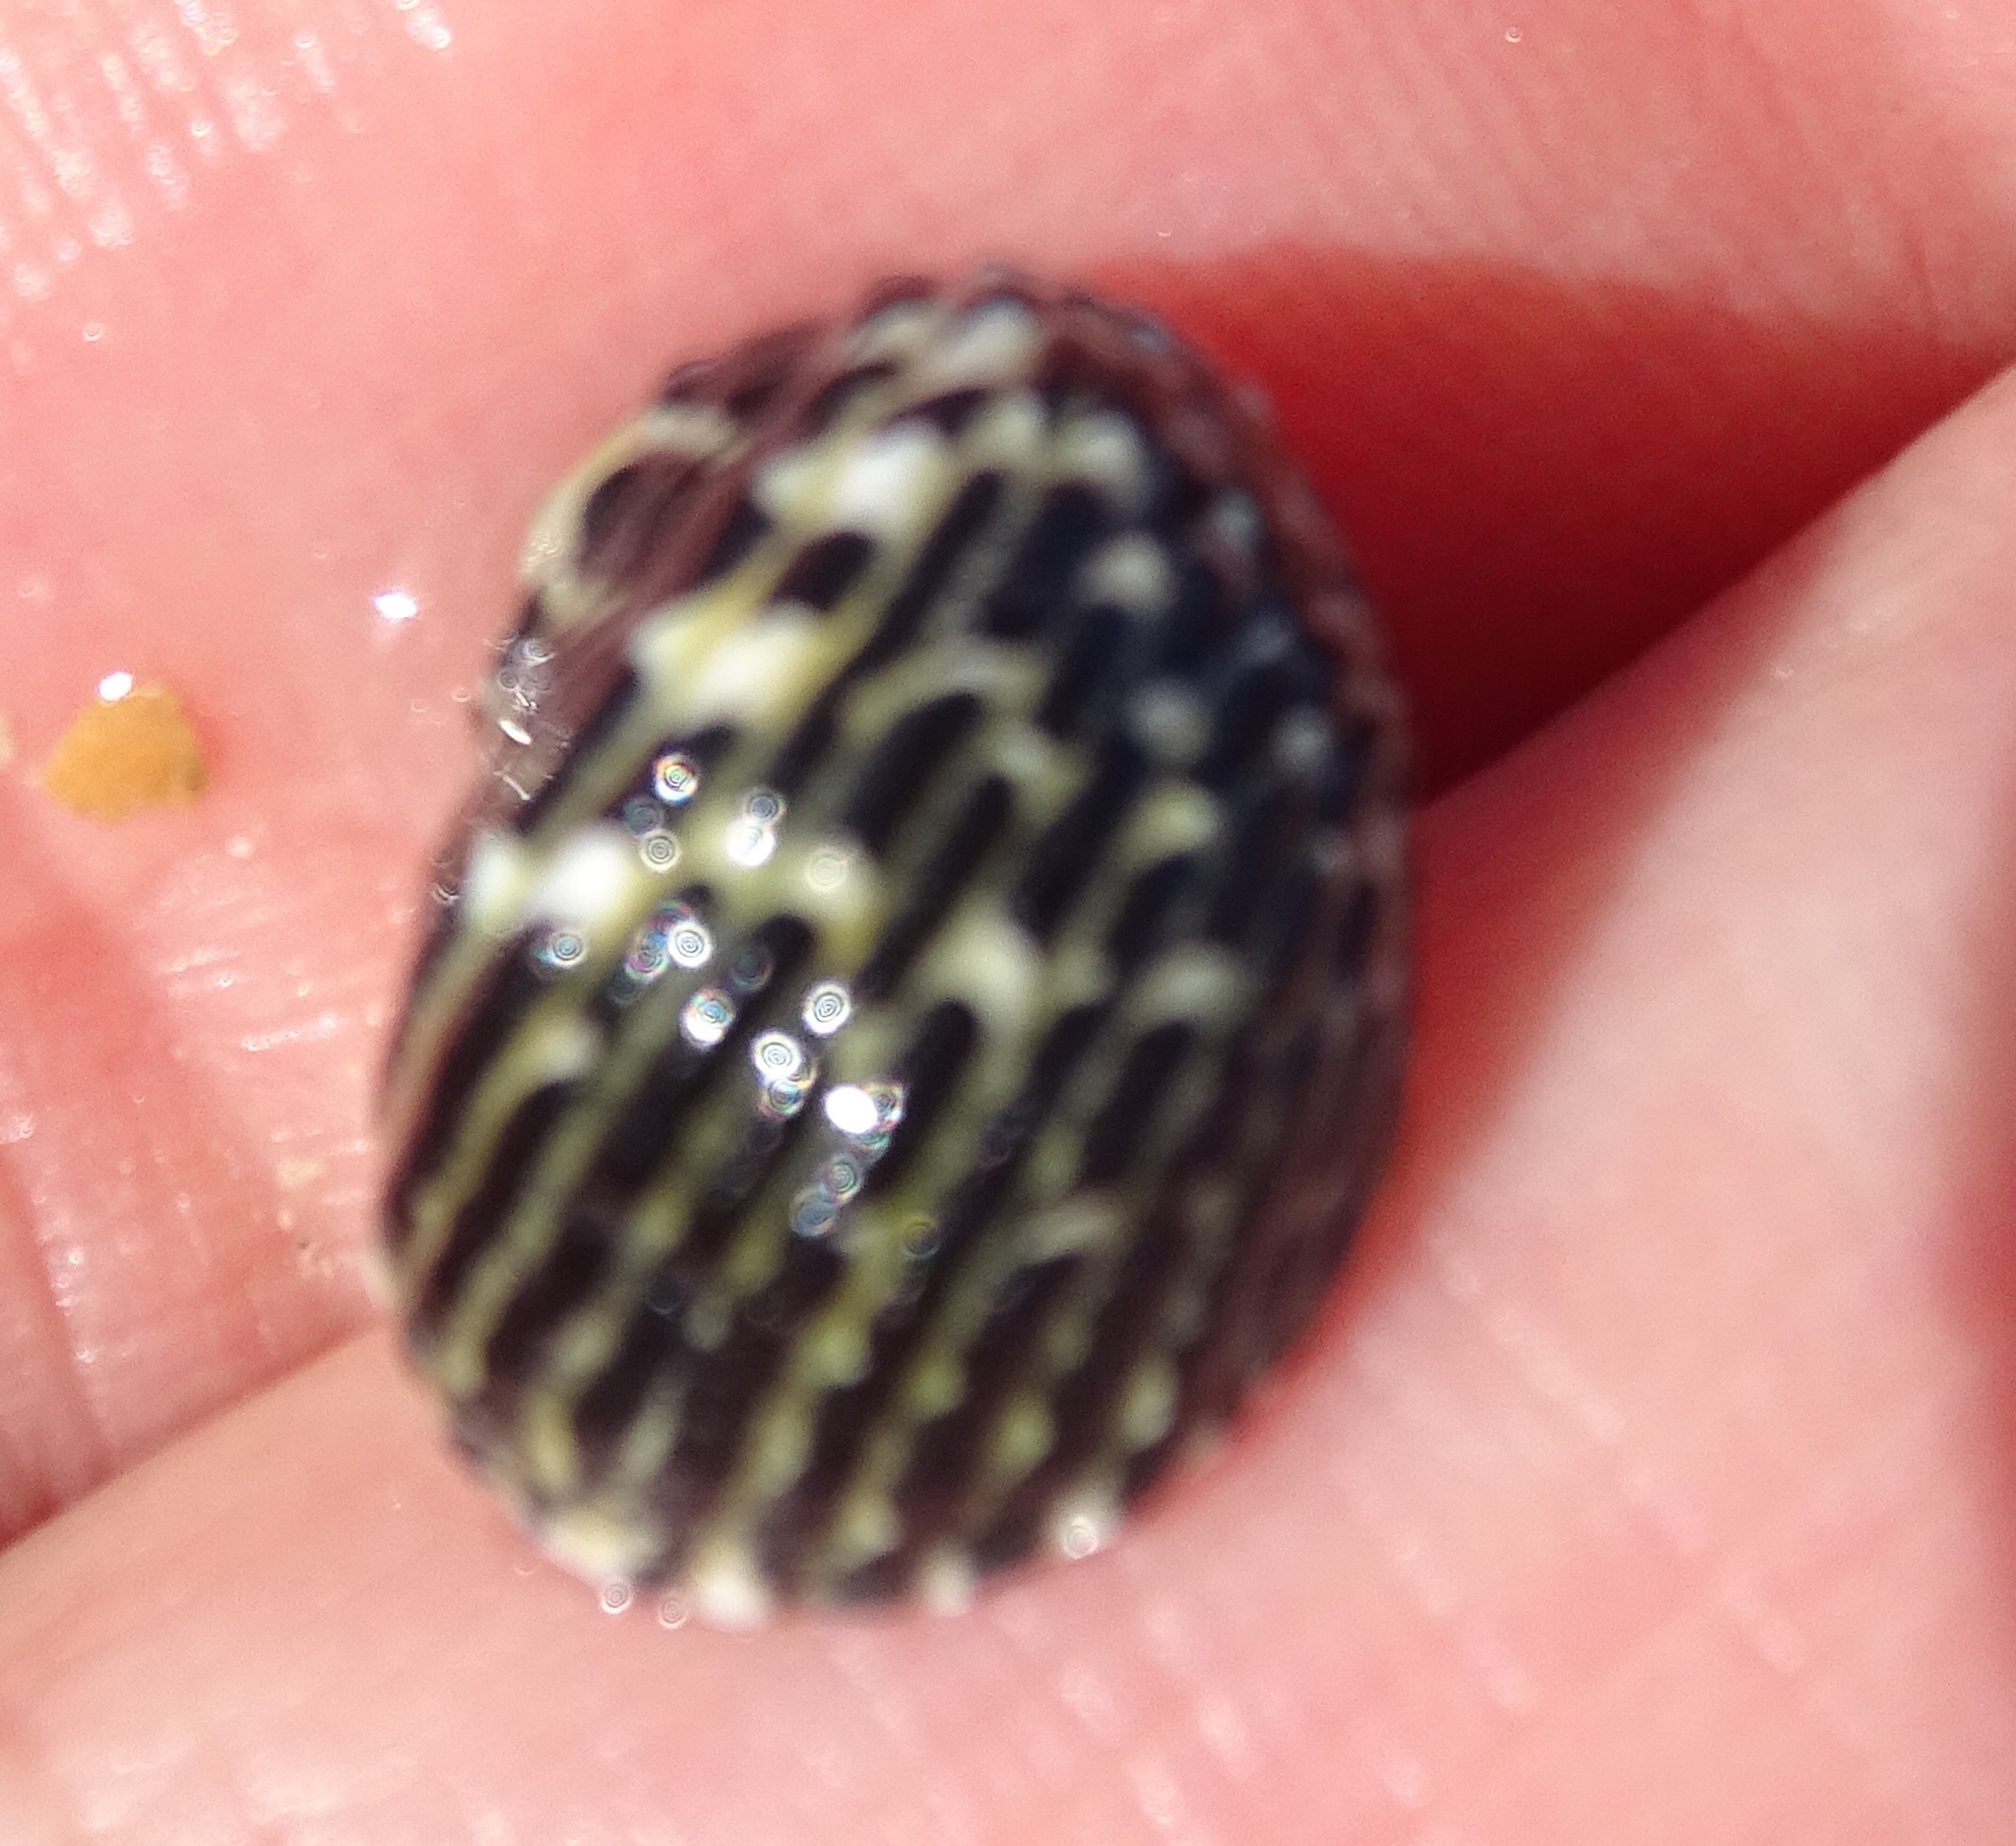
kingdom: Animalia
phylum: Mollusca
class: Gastropoda
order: Cycloneritida
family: Neritidae
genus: Nerita
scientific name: Nerita tessellata
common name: Checkered nerite
